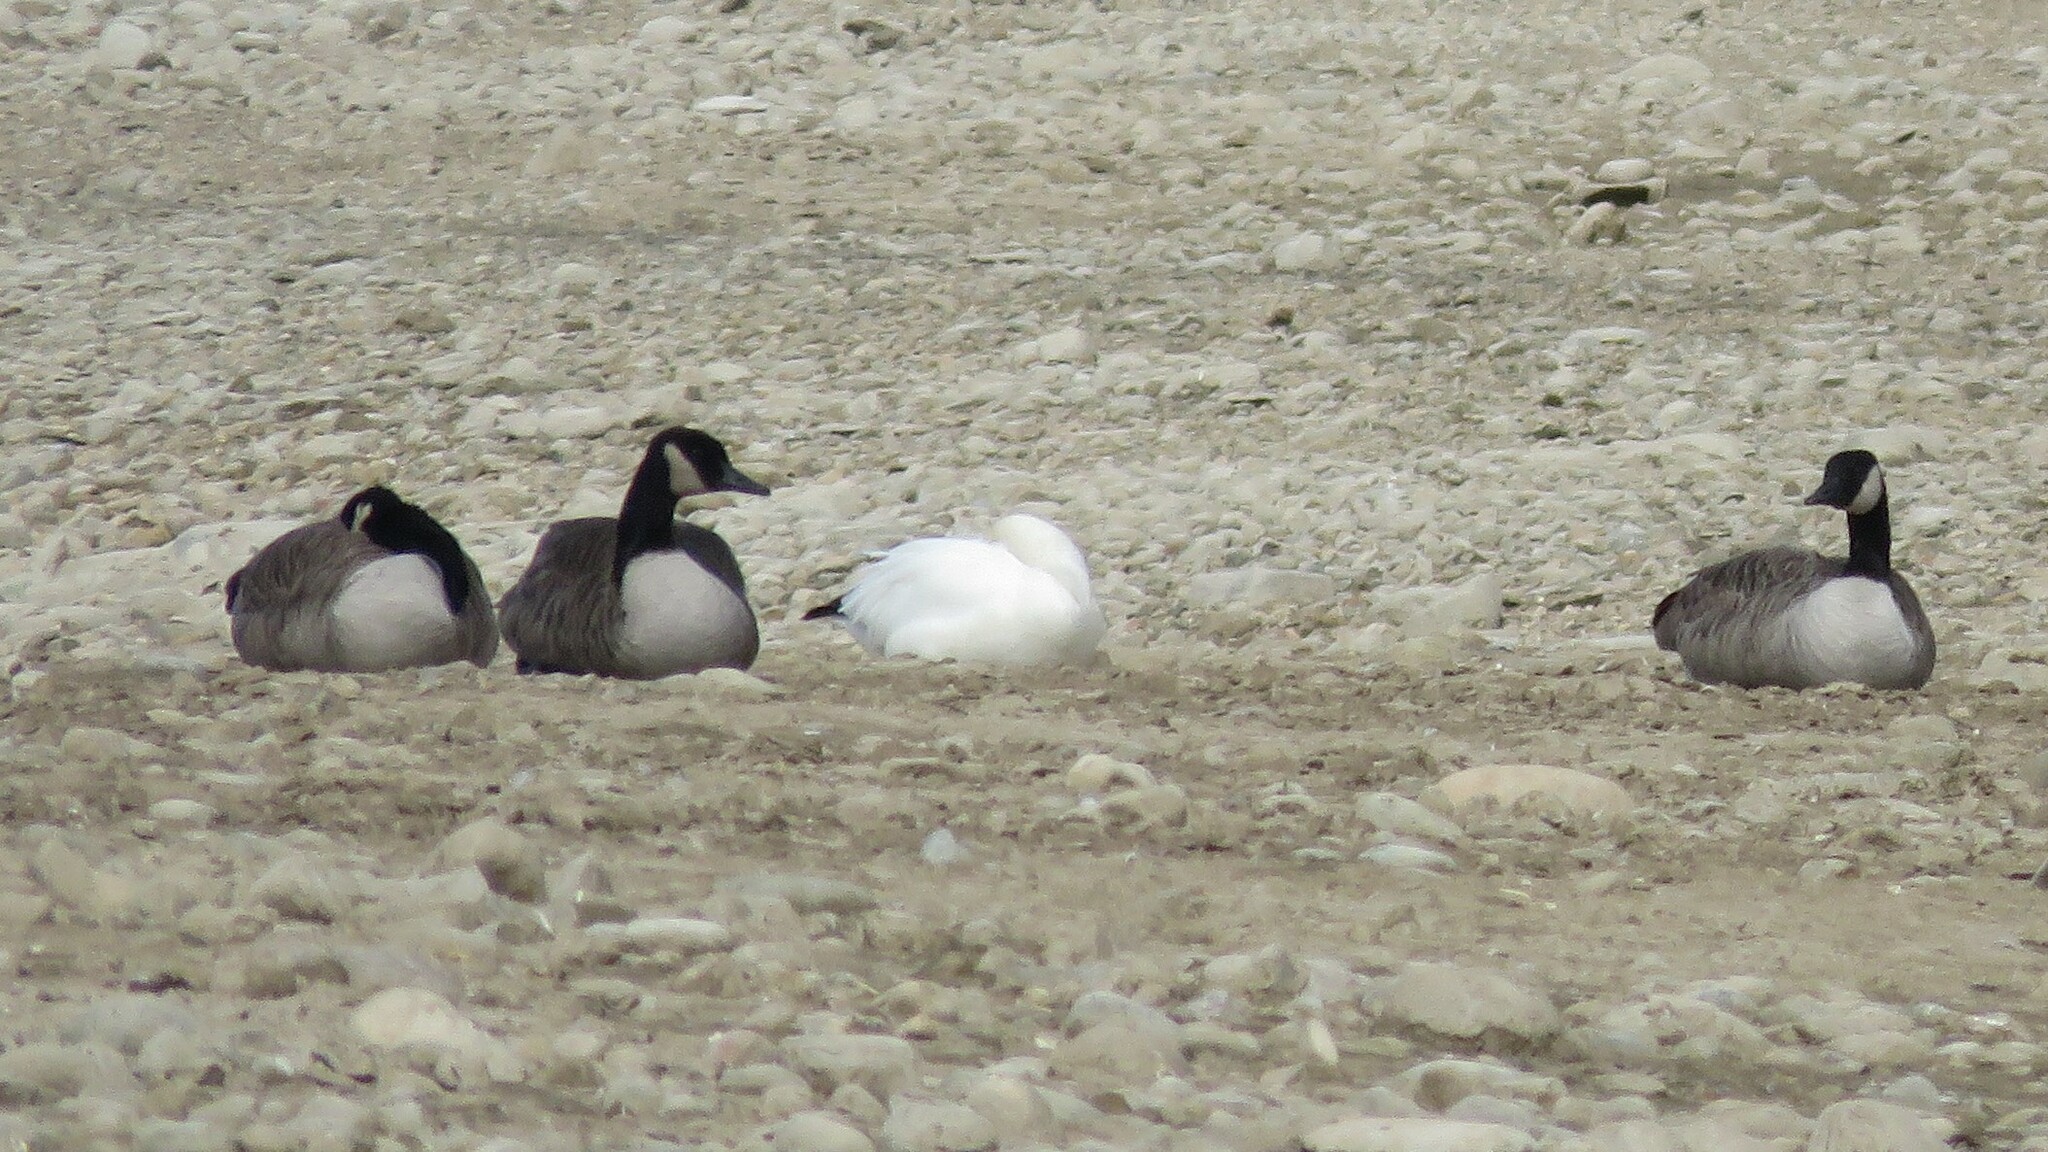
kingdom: Animalia
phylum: Chordata
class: Aves
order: Anseriformes
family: Anatidae
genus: Anser
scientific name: Anser caerulescens
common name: Snow goose
